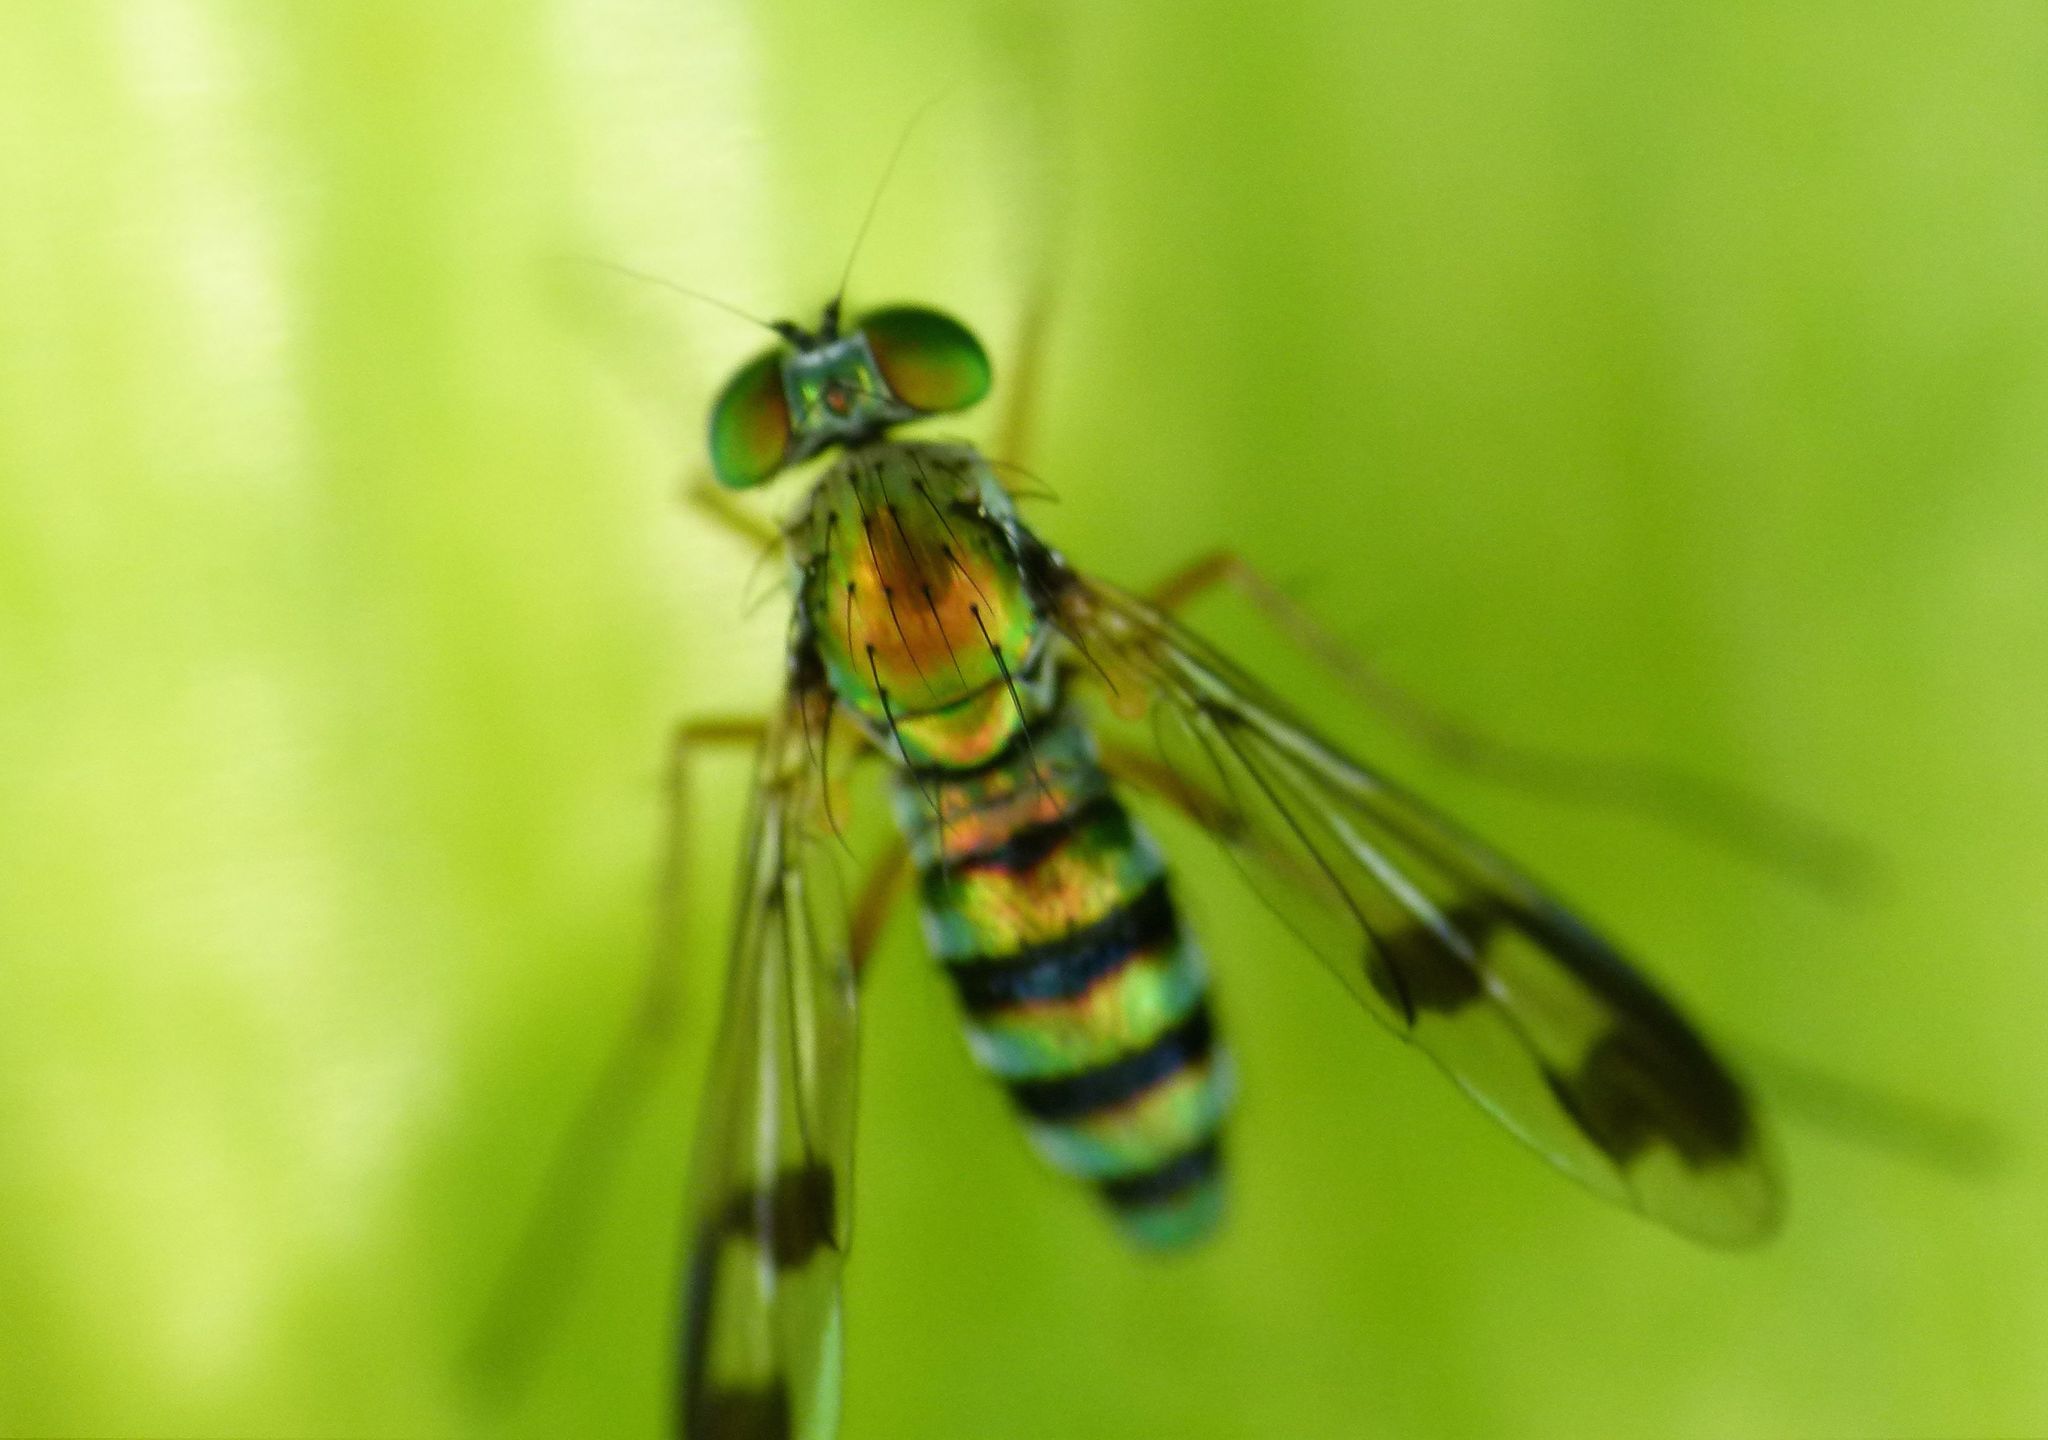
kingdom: Animalia
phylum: Arthropoda
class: Insecta
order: Diptera
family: Dolichopodidae
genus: Austrosciapus
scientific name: Austrosciapus proximus
